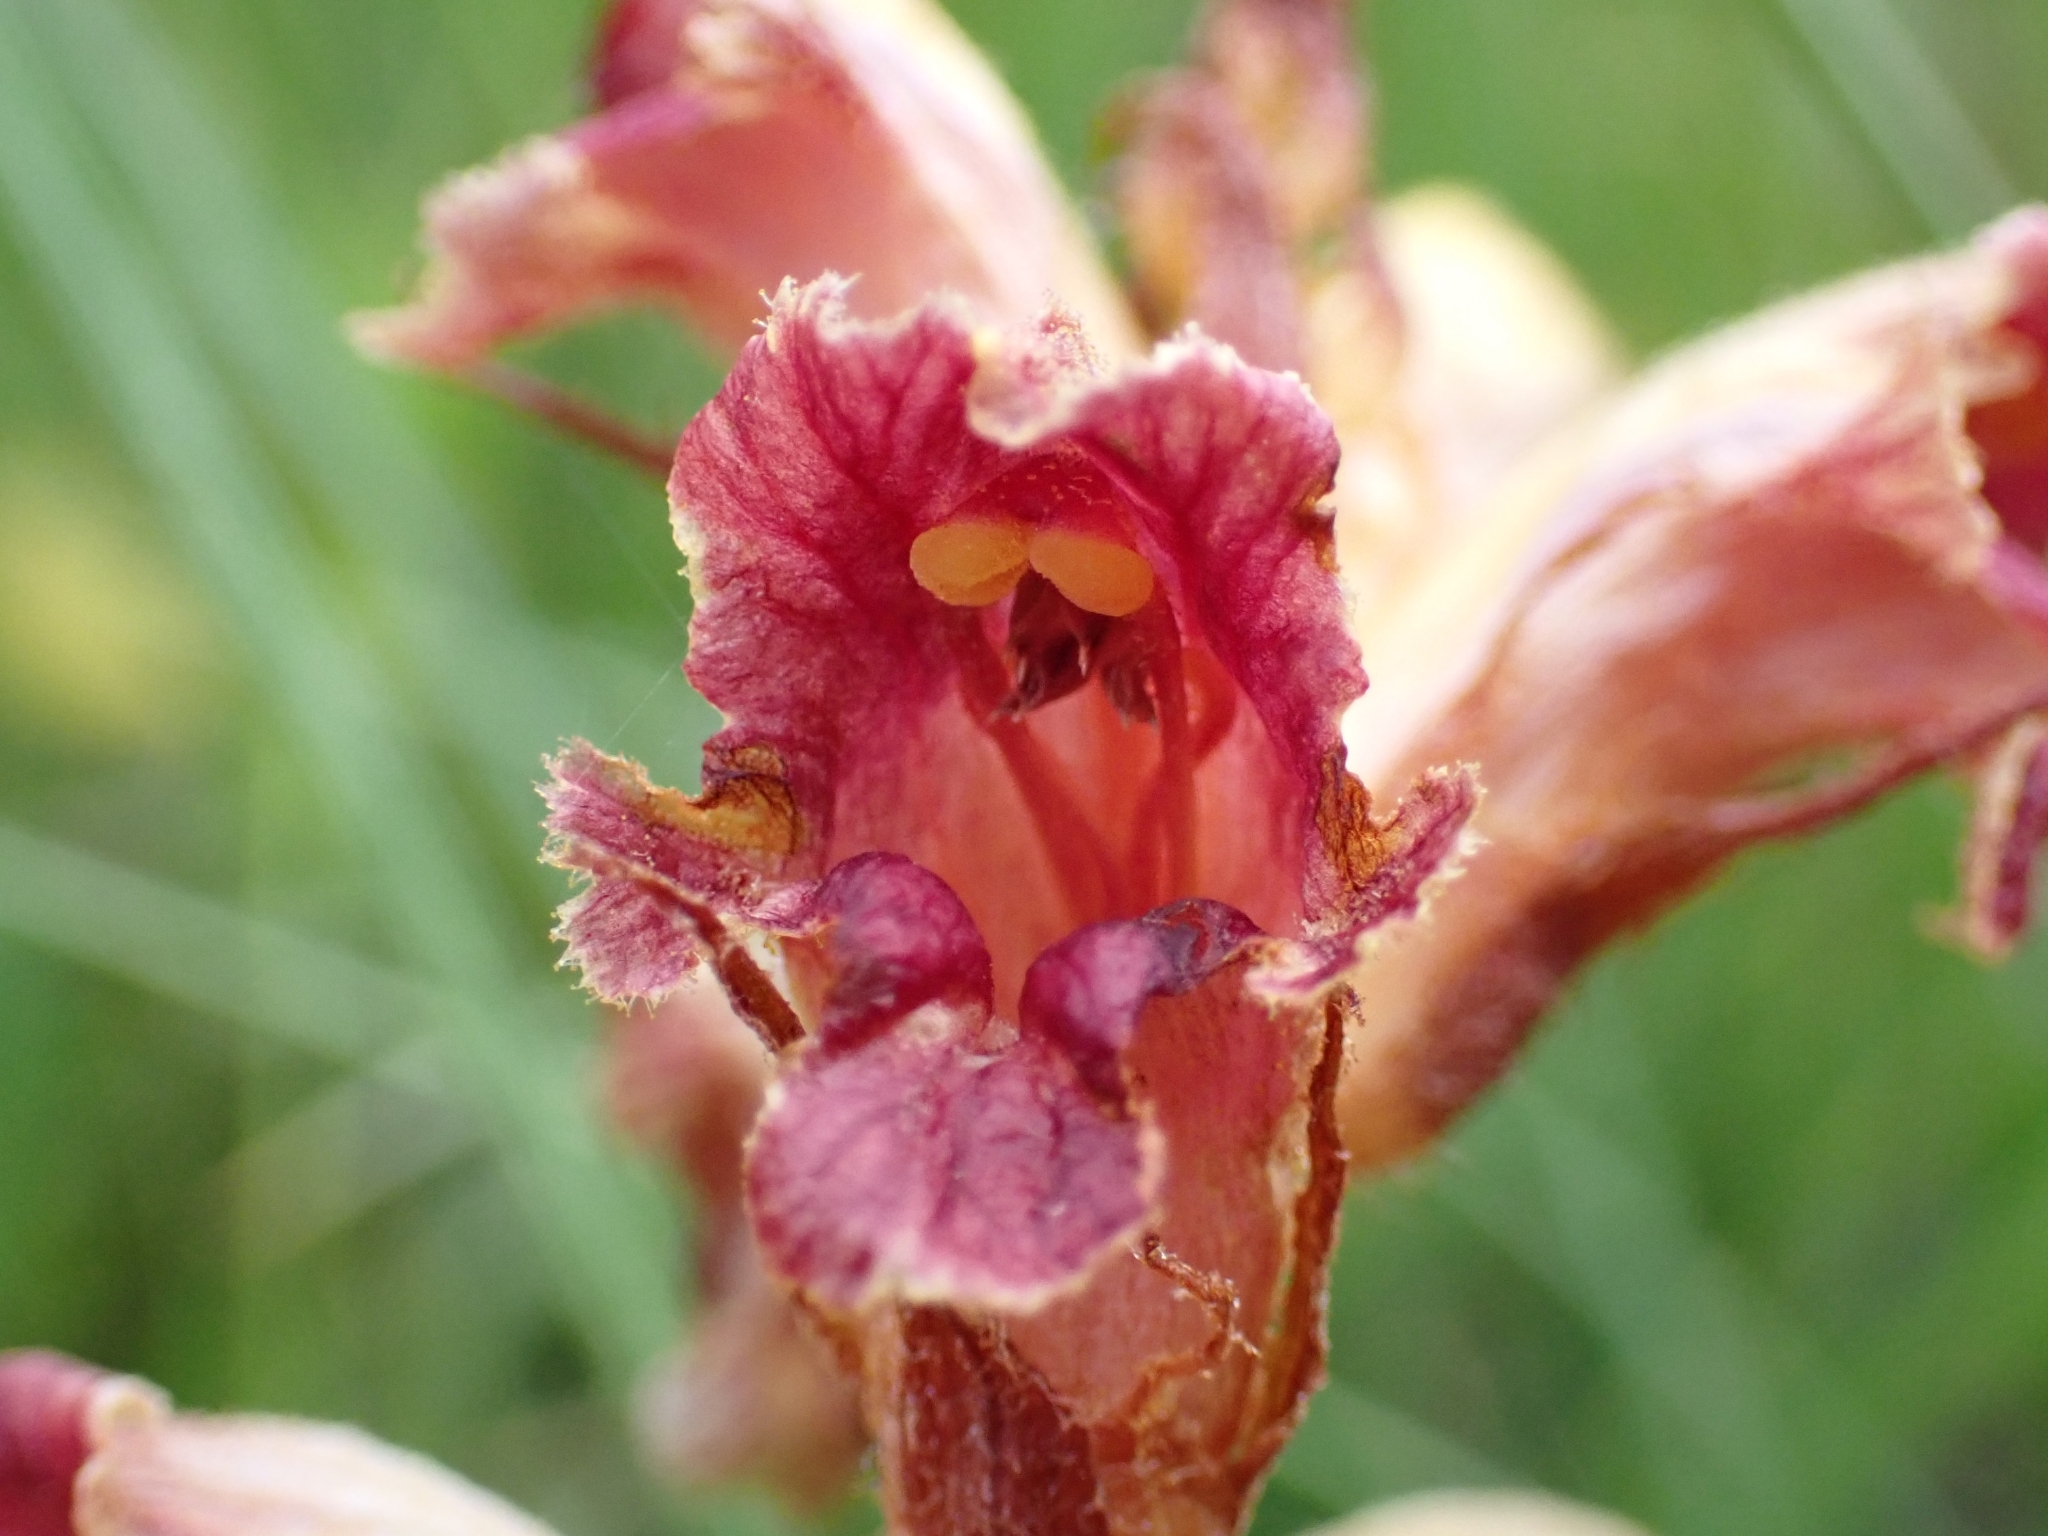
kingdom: Plantae
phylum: Tracheophyta
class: Magnoliopsida
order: Lamiales
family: Orobanchaceae
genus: Orobanche
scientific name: Orobanche gracilis
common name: Slender broomrape
